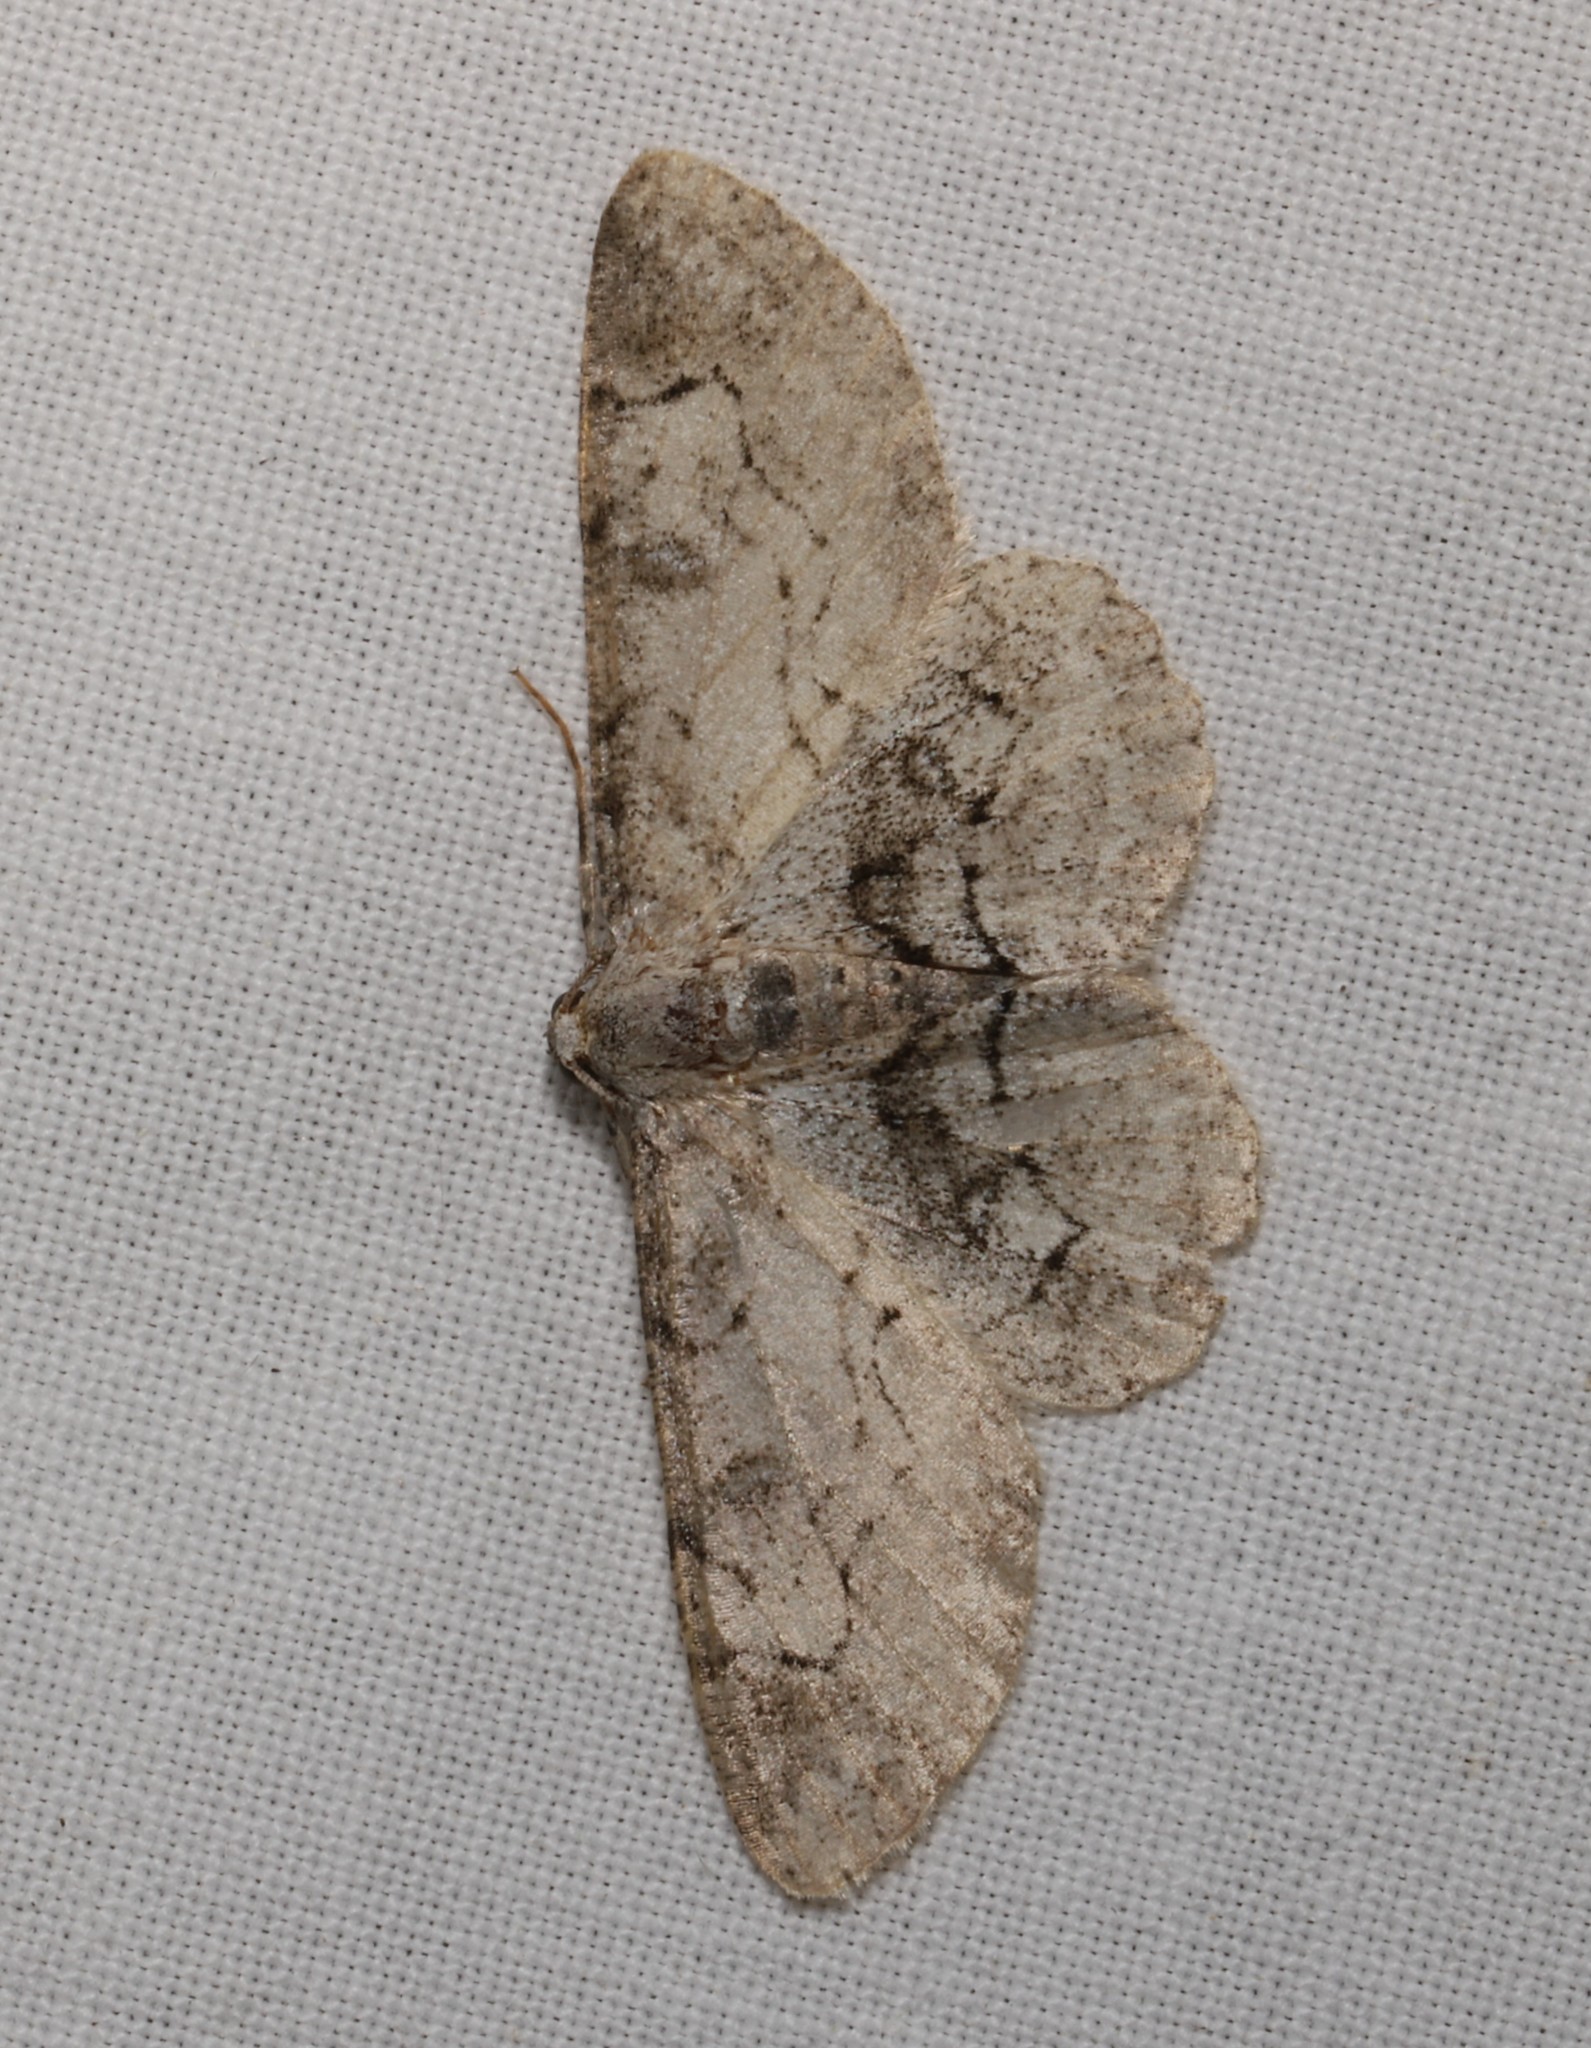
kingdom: Animalia
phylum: Arthropoda
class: Insecta
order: Lepidoptera
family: Geometridae
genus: Iridopsis
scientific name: Iridopsis larvaria
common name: Bent-line gray
